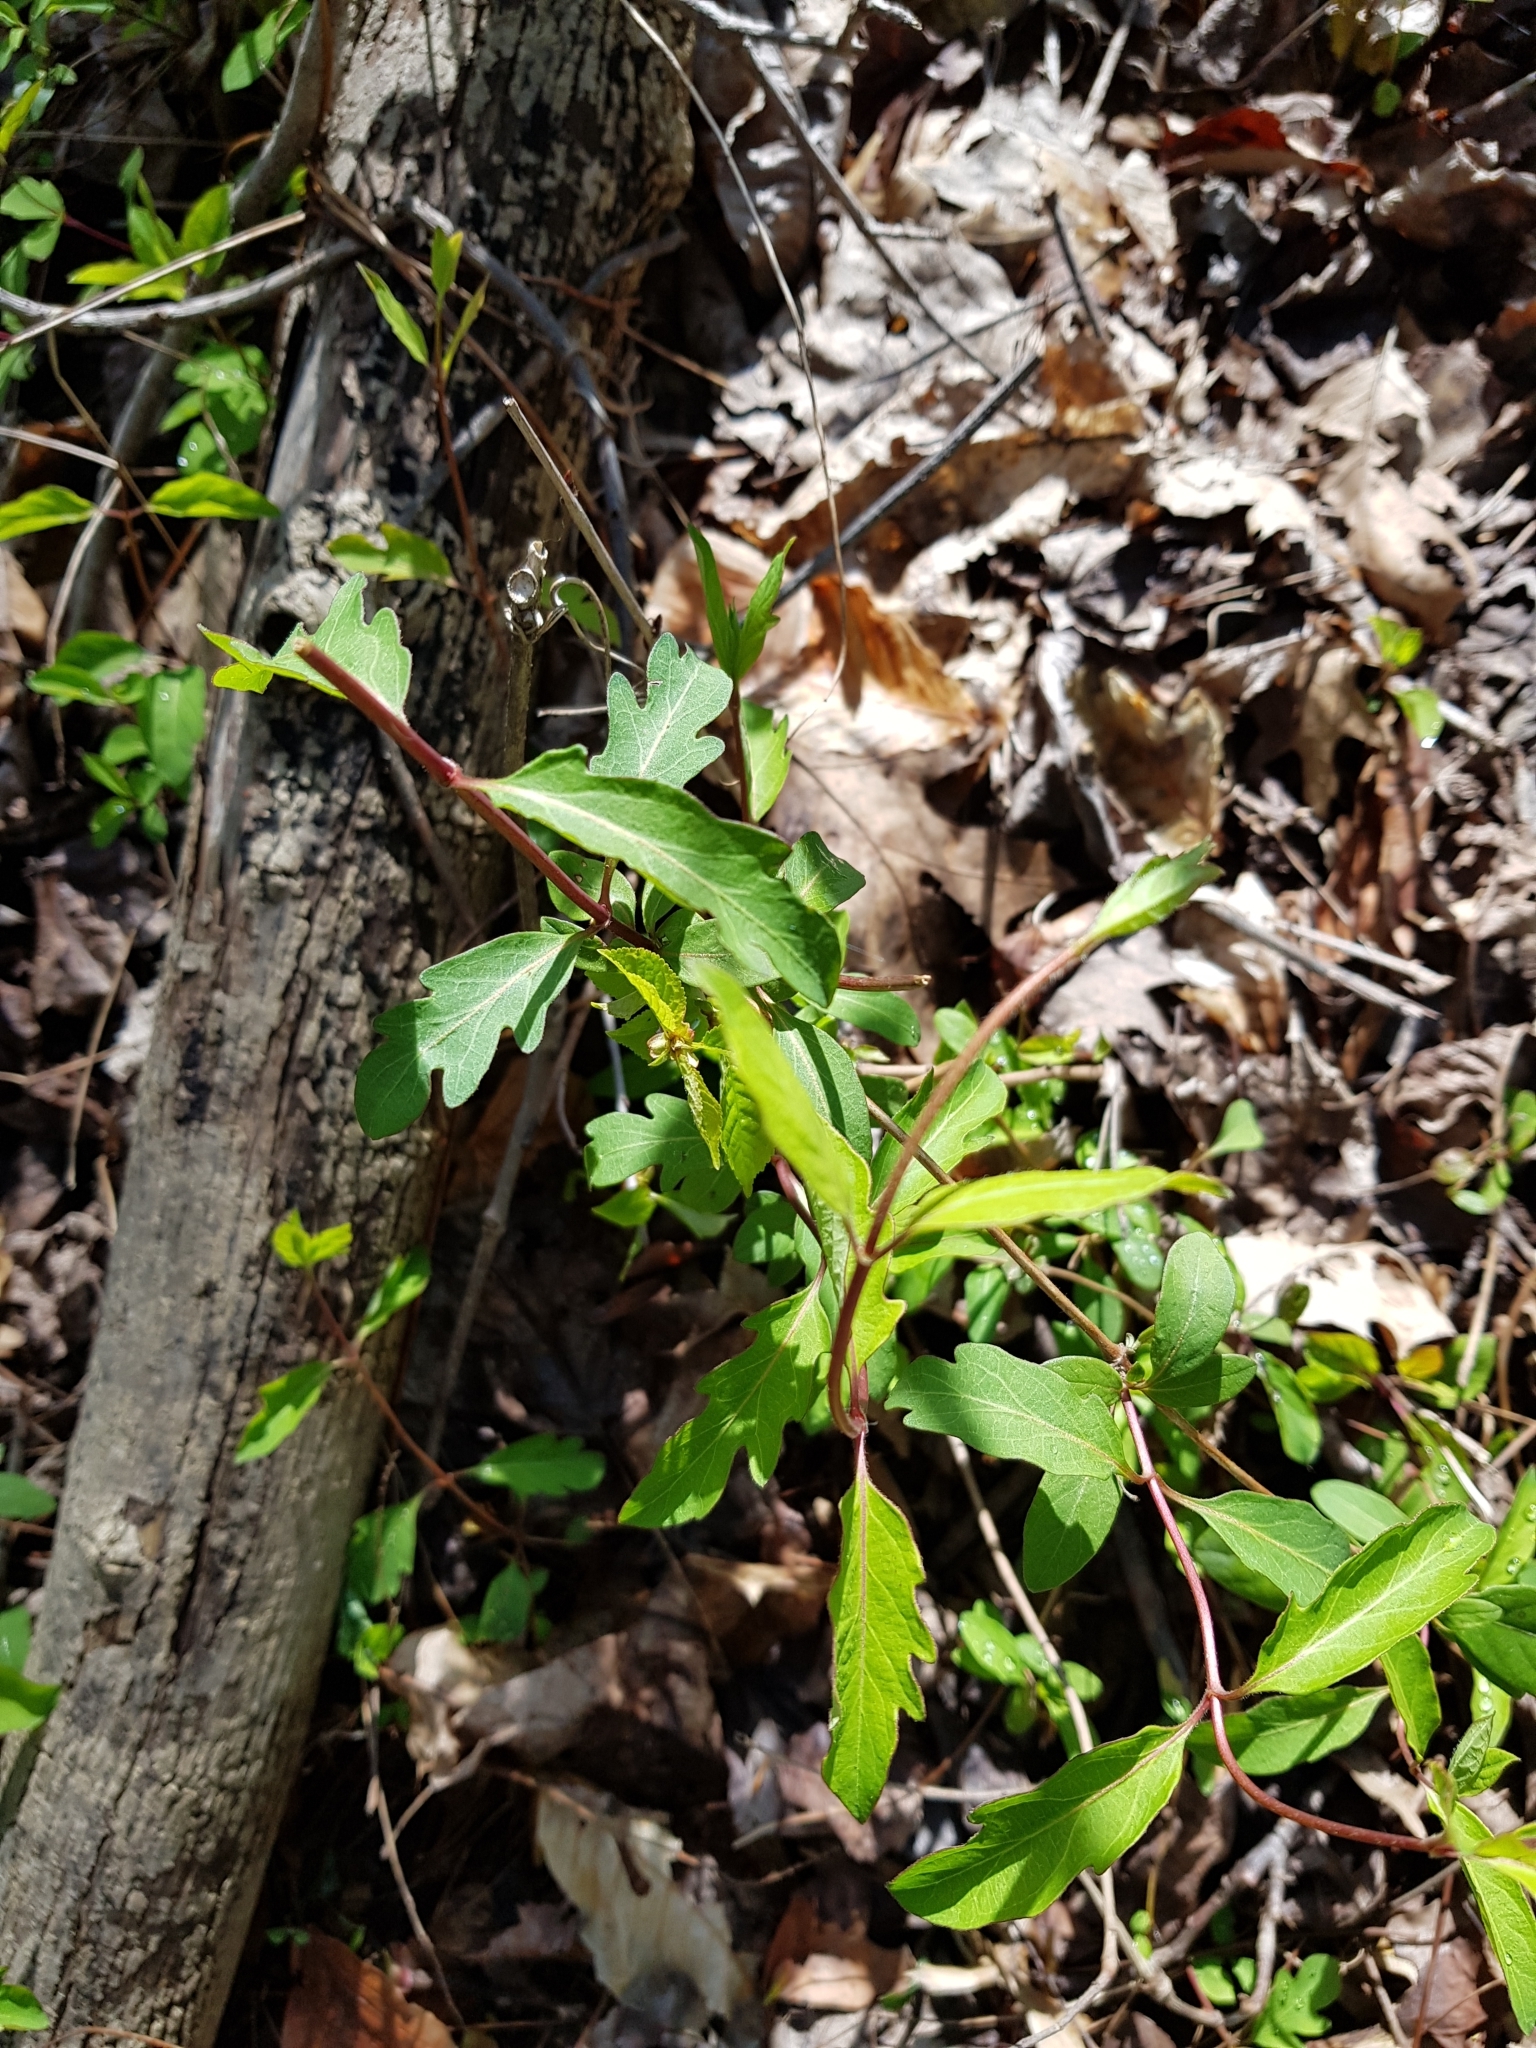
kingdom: Plantae
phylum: Tracheophyta
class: Magnoliopsida
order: Dipsacales
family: Caprifoliaceae
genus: Lonicera
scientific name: Lonicera japonica
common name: Japanese honeysuckle
